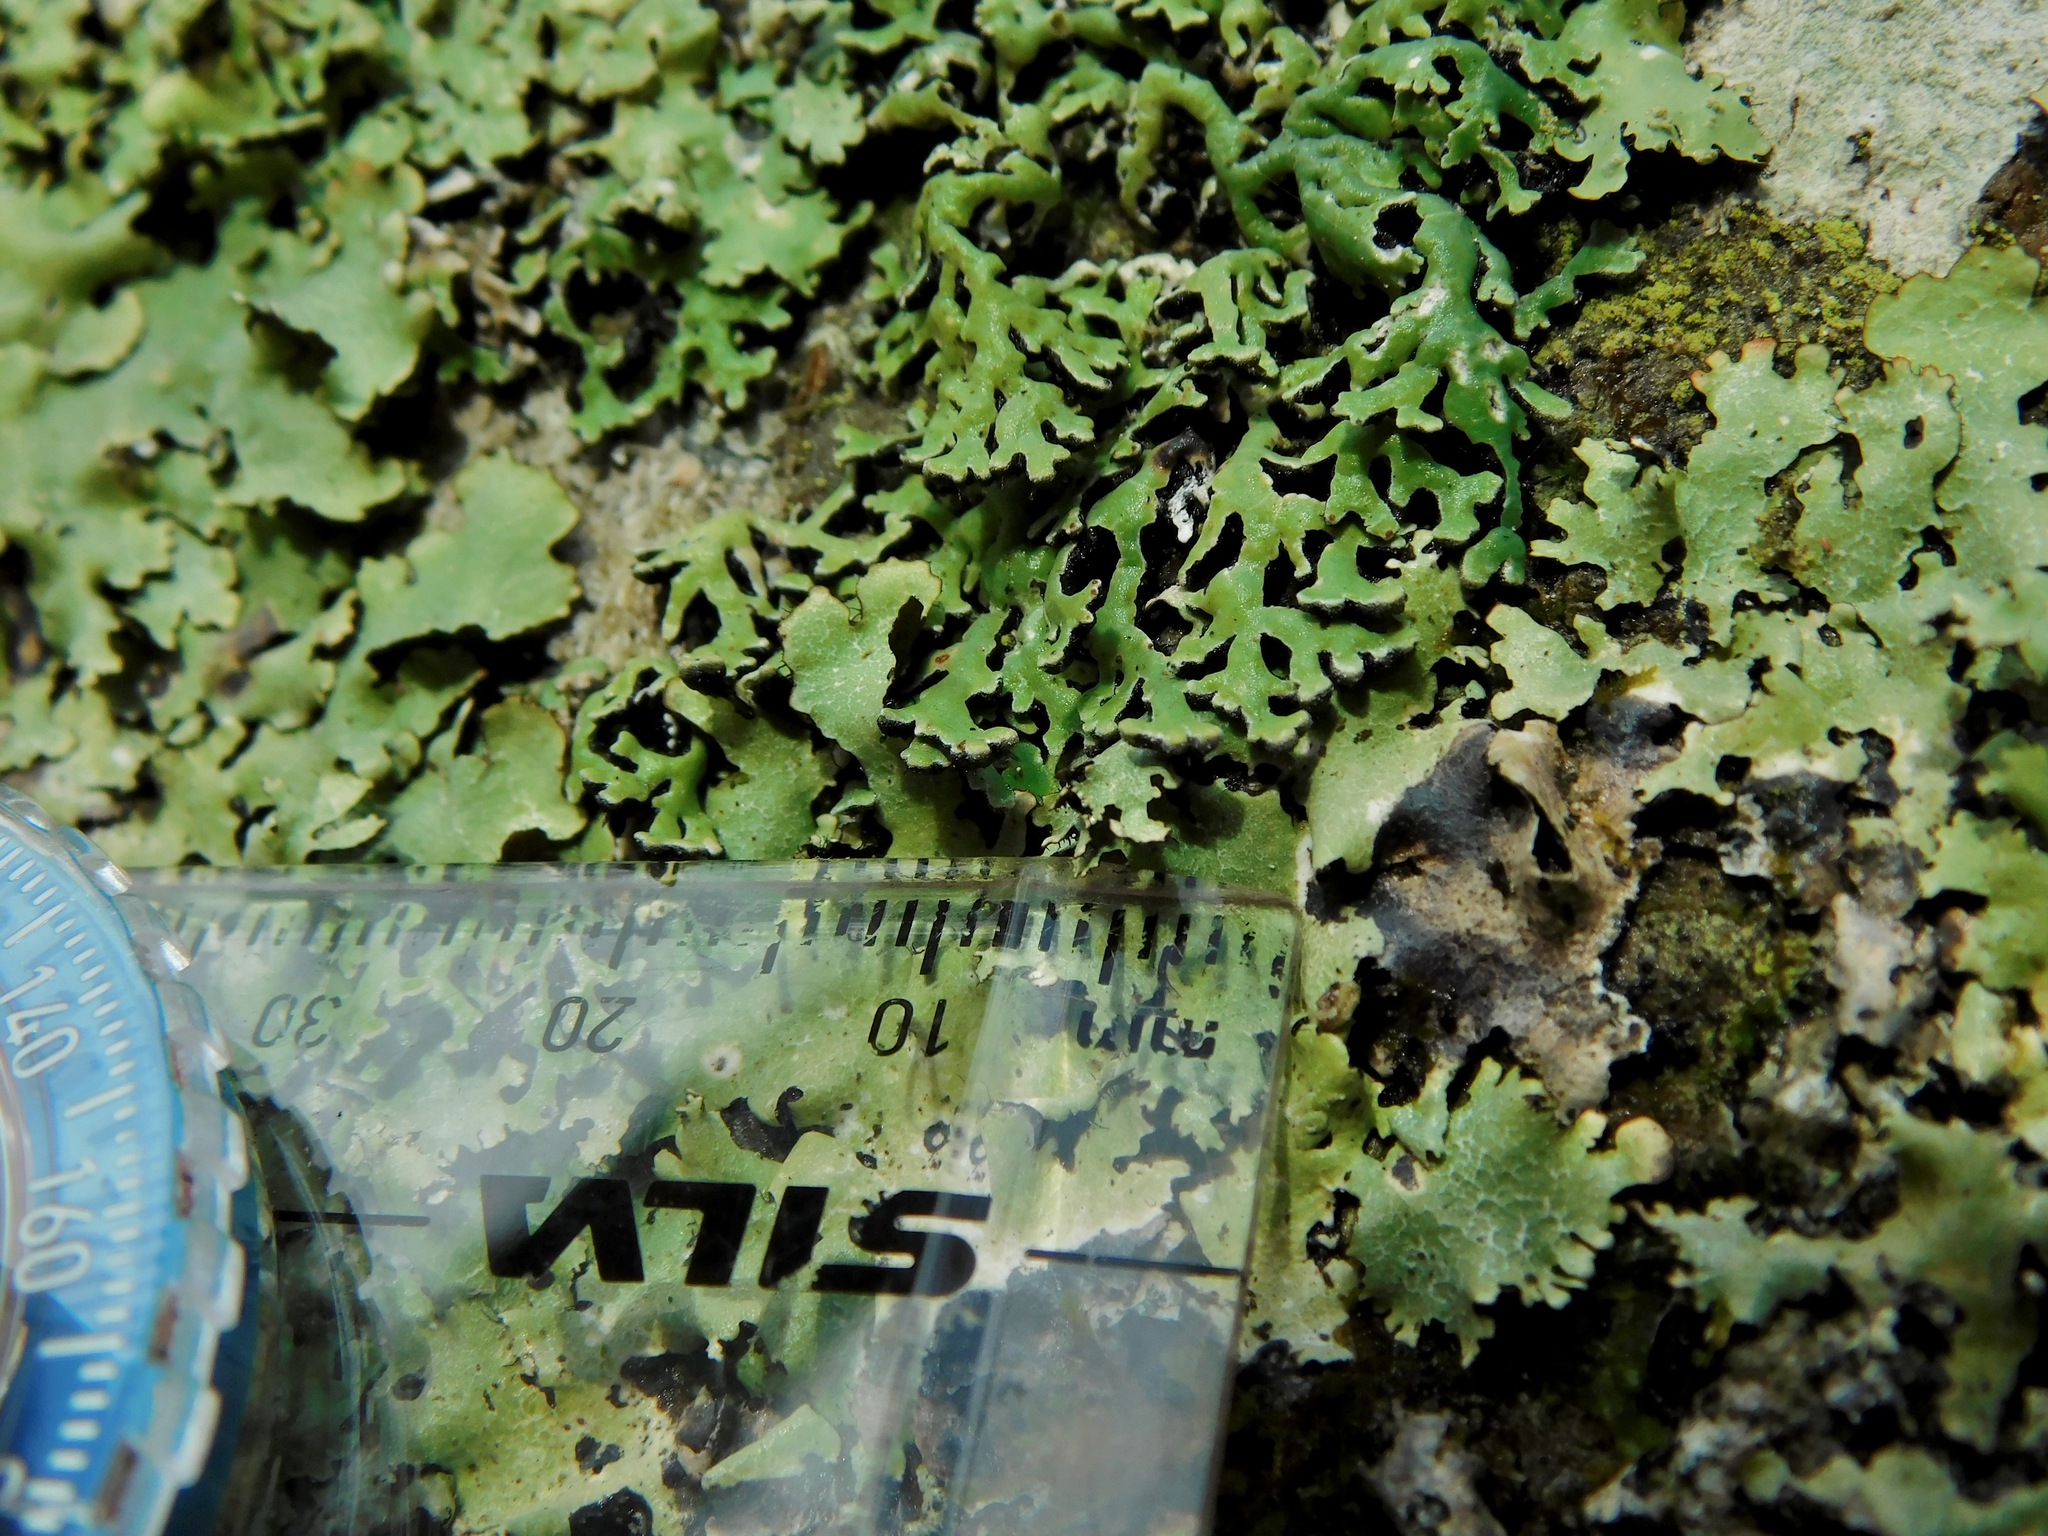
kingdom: Fungi
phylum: Ascomycota
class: Lecanoromycetes
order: Lecanorales
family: Parmeliaceae
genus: Anzia
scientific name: Anzia colpodes
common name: Black-foam lichen
